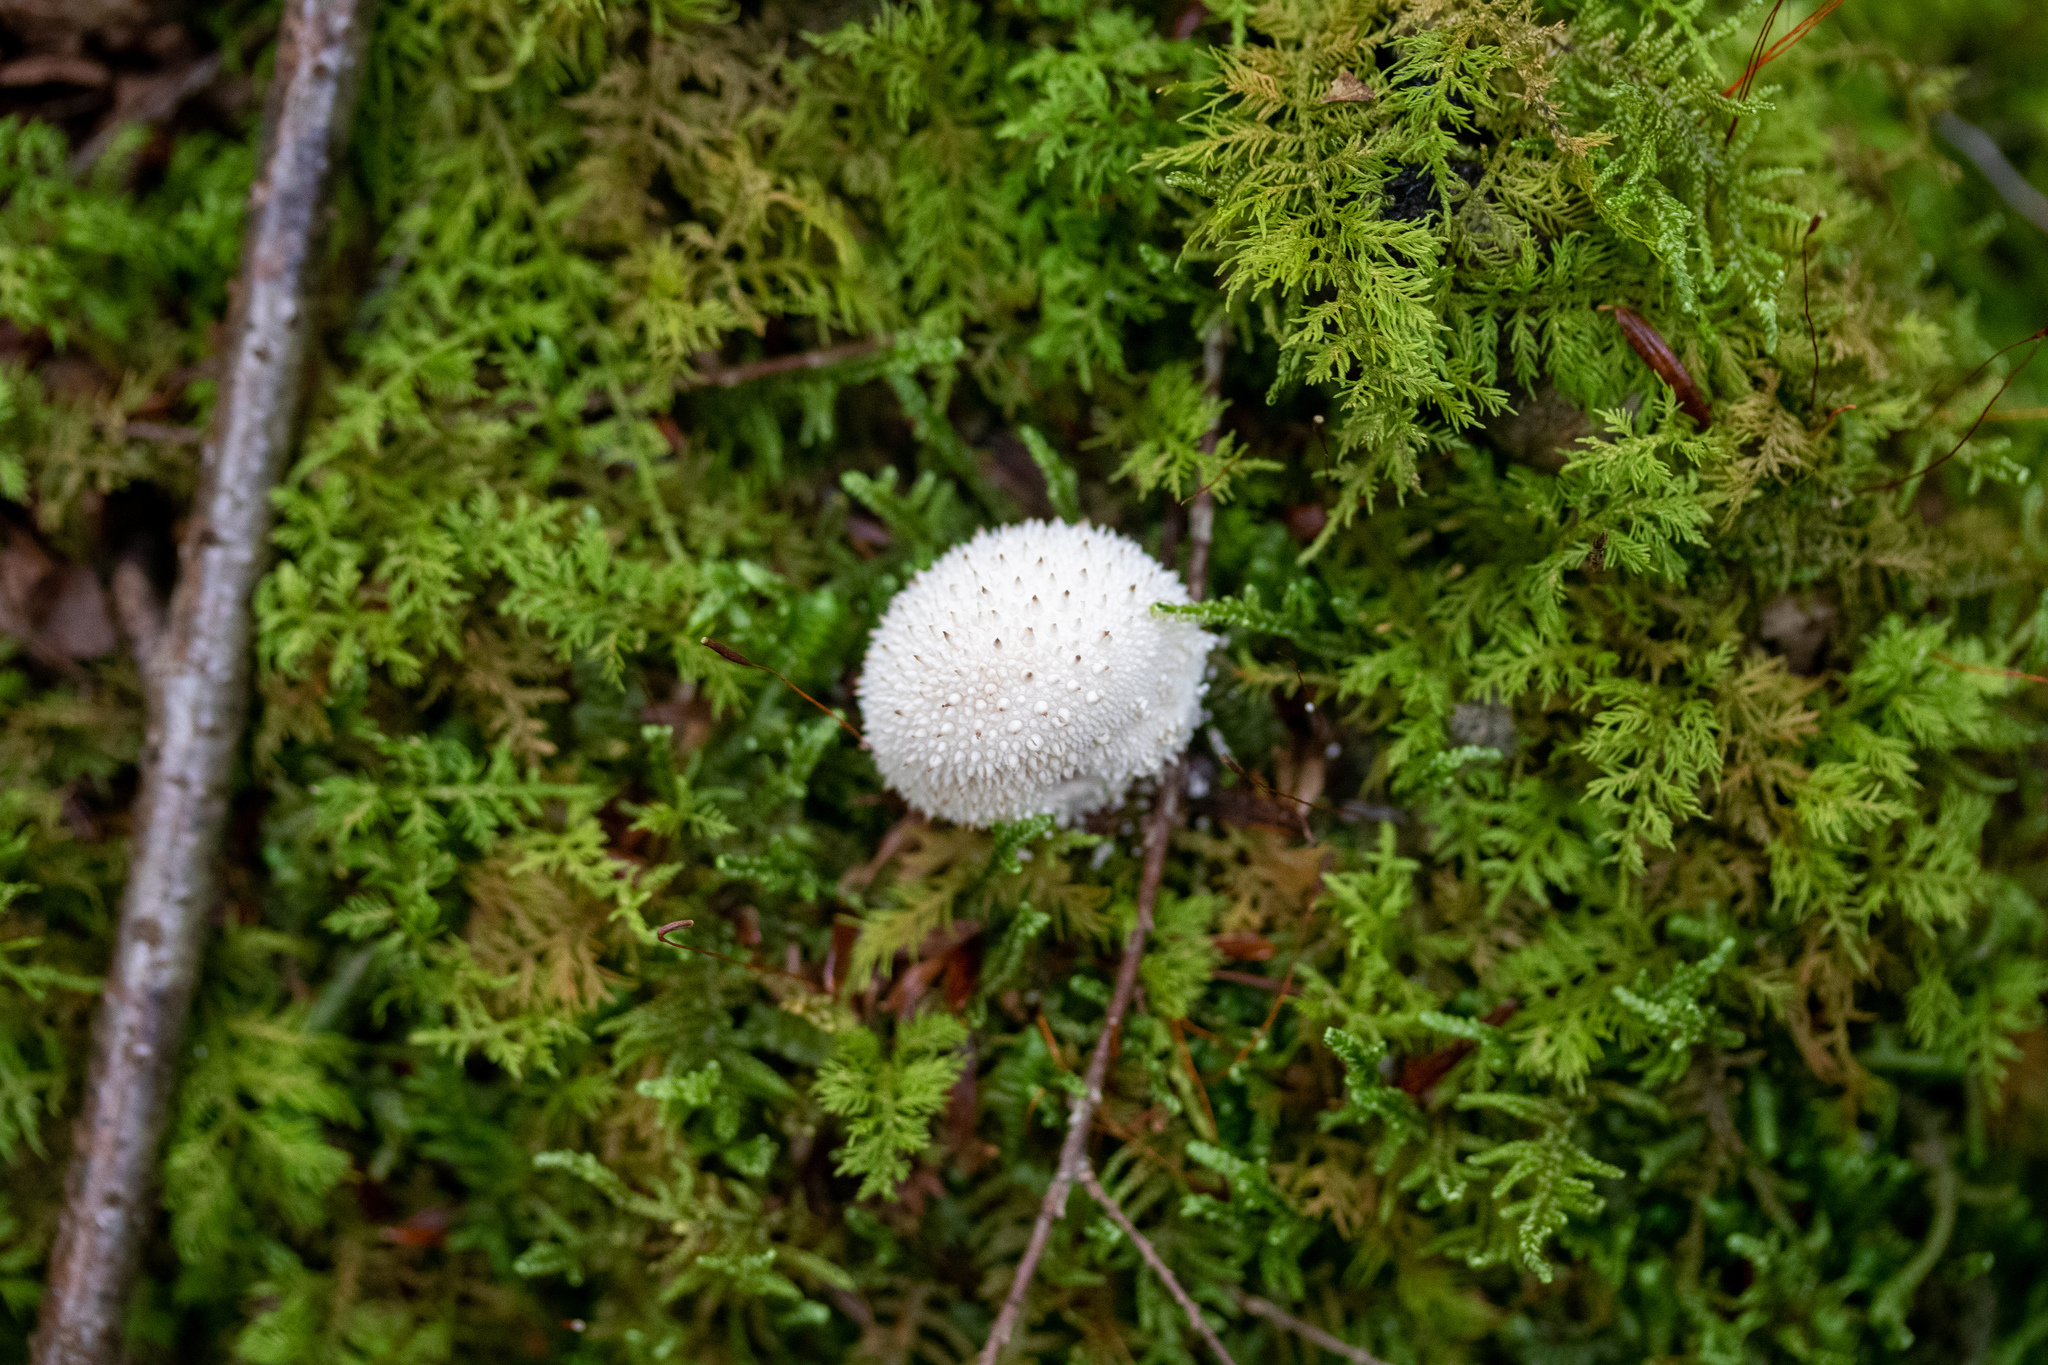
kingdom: Fungi
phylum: Basidiomycota
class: Agaricomycetes
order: Agaricales
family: Lycoperdaceae
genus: Lycoperdon
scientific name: Lycoperdon perlatum
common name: Common puffball
